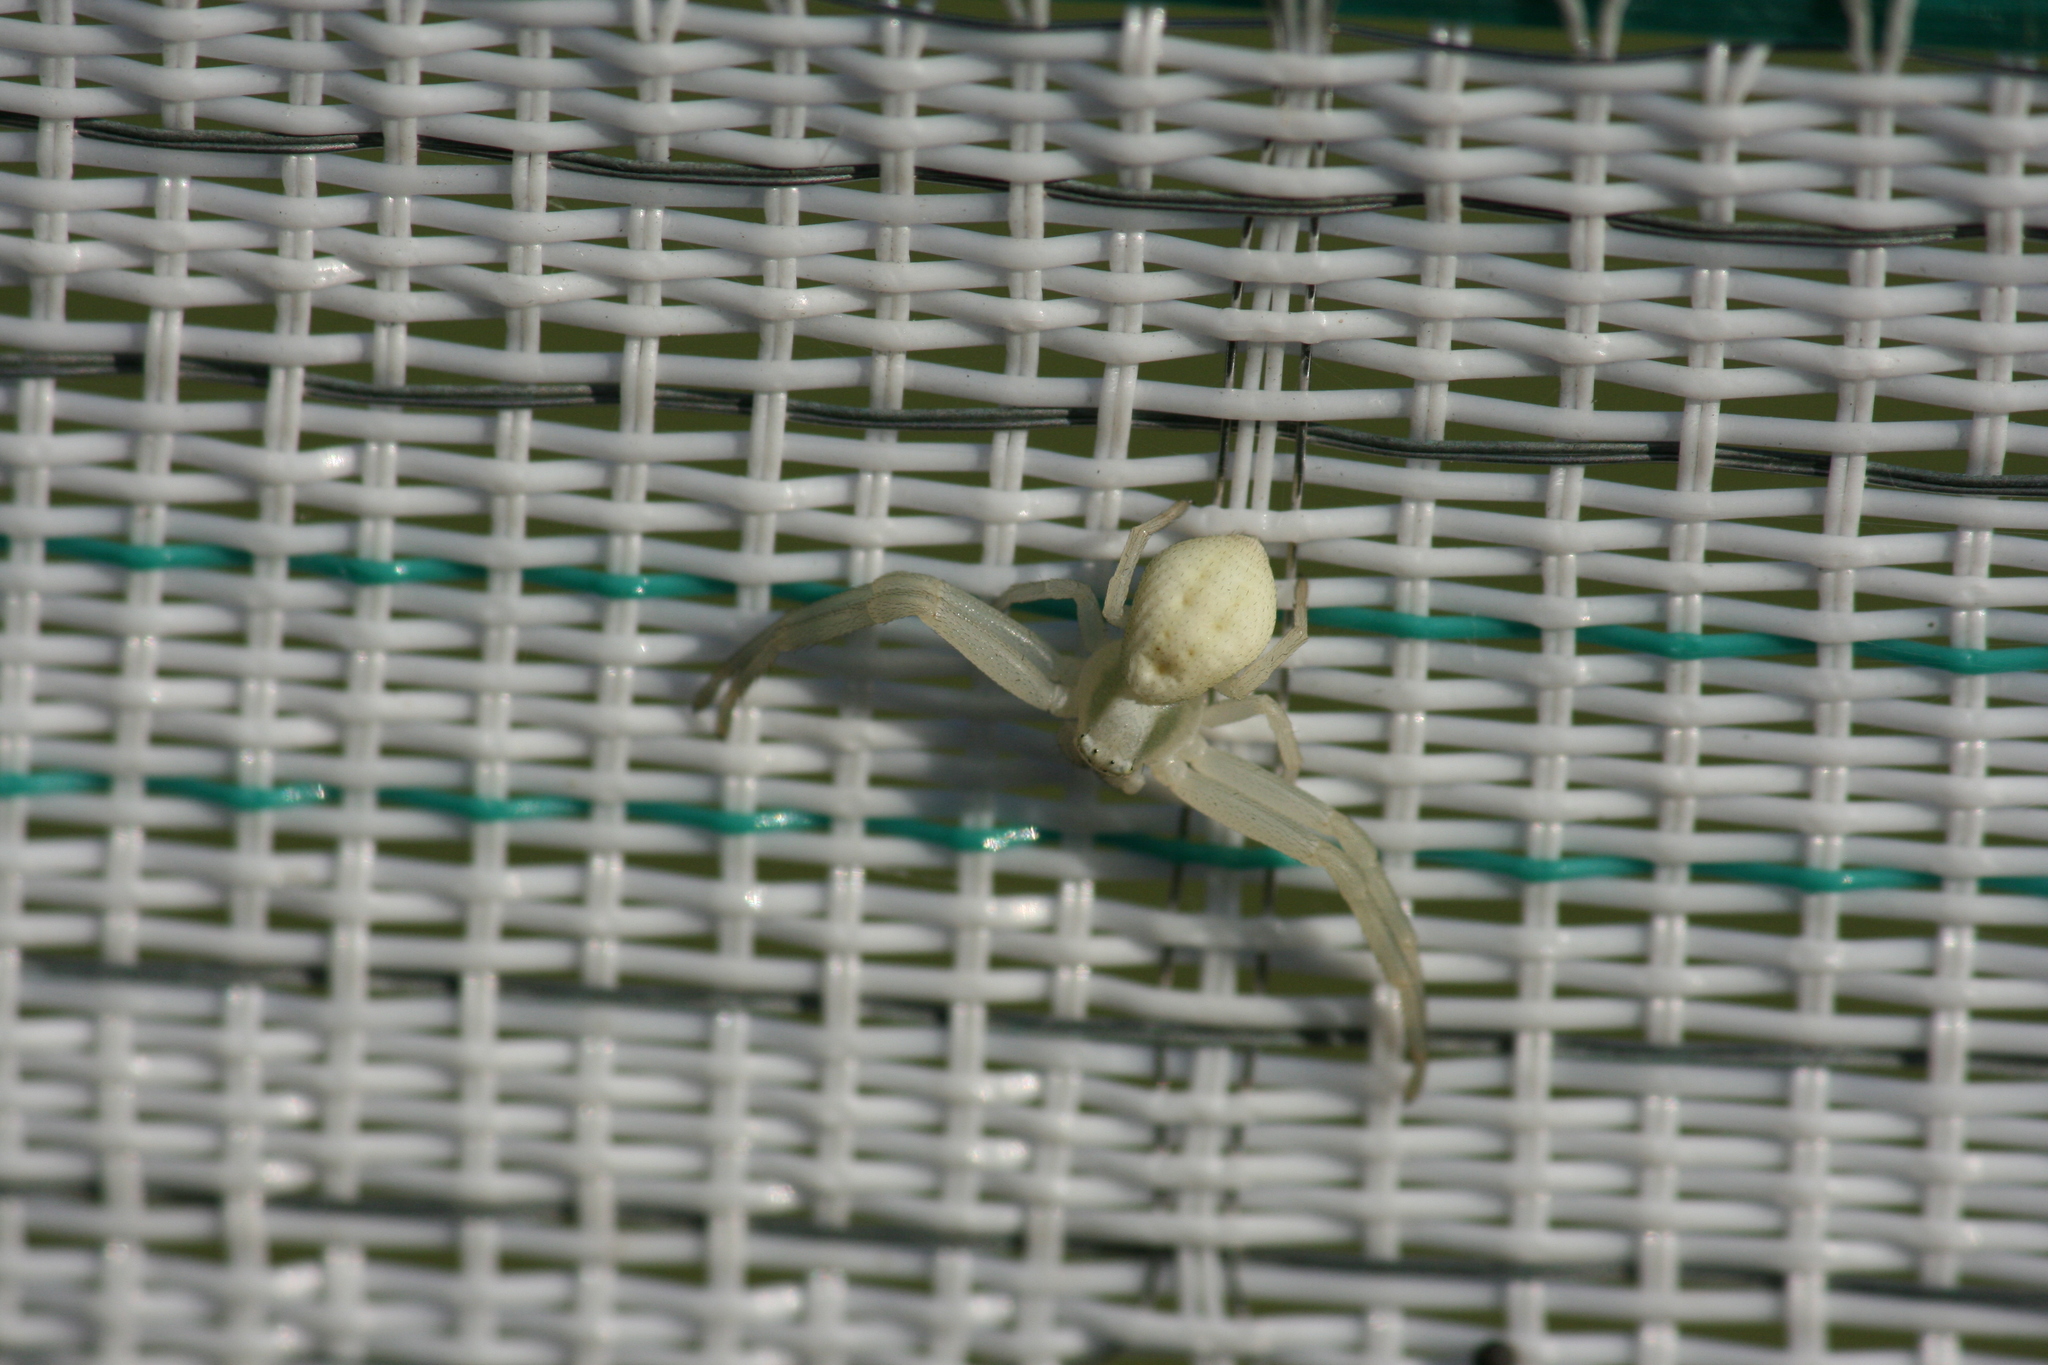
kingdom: Animalia
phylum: Arthropoda
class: Arachnida
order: Araneae
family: Thomisidae
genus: Misumena
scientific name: Misumena vatia
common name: Goldenrod crab spider
